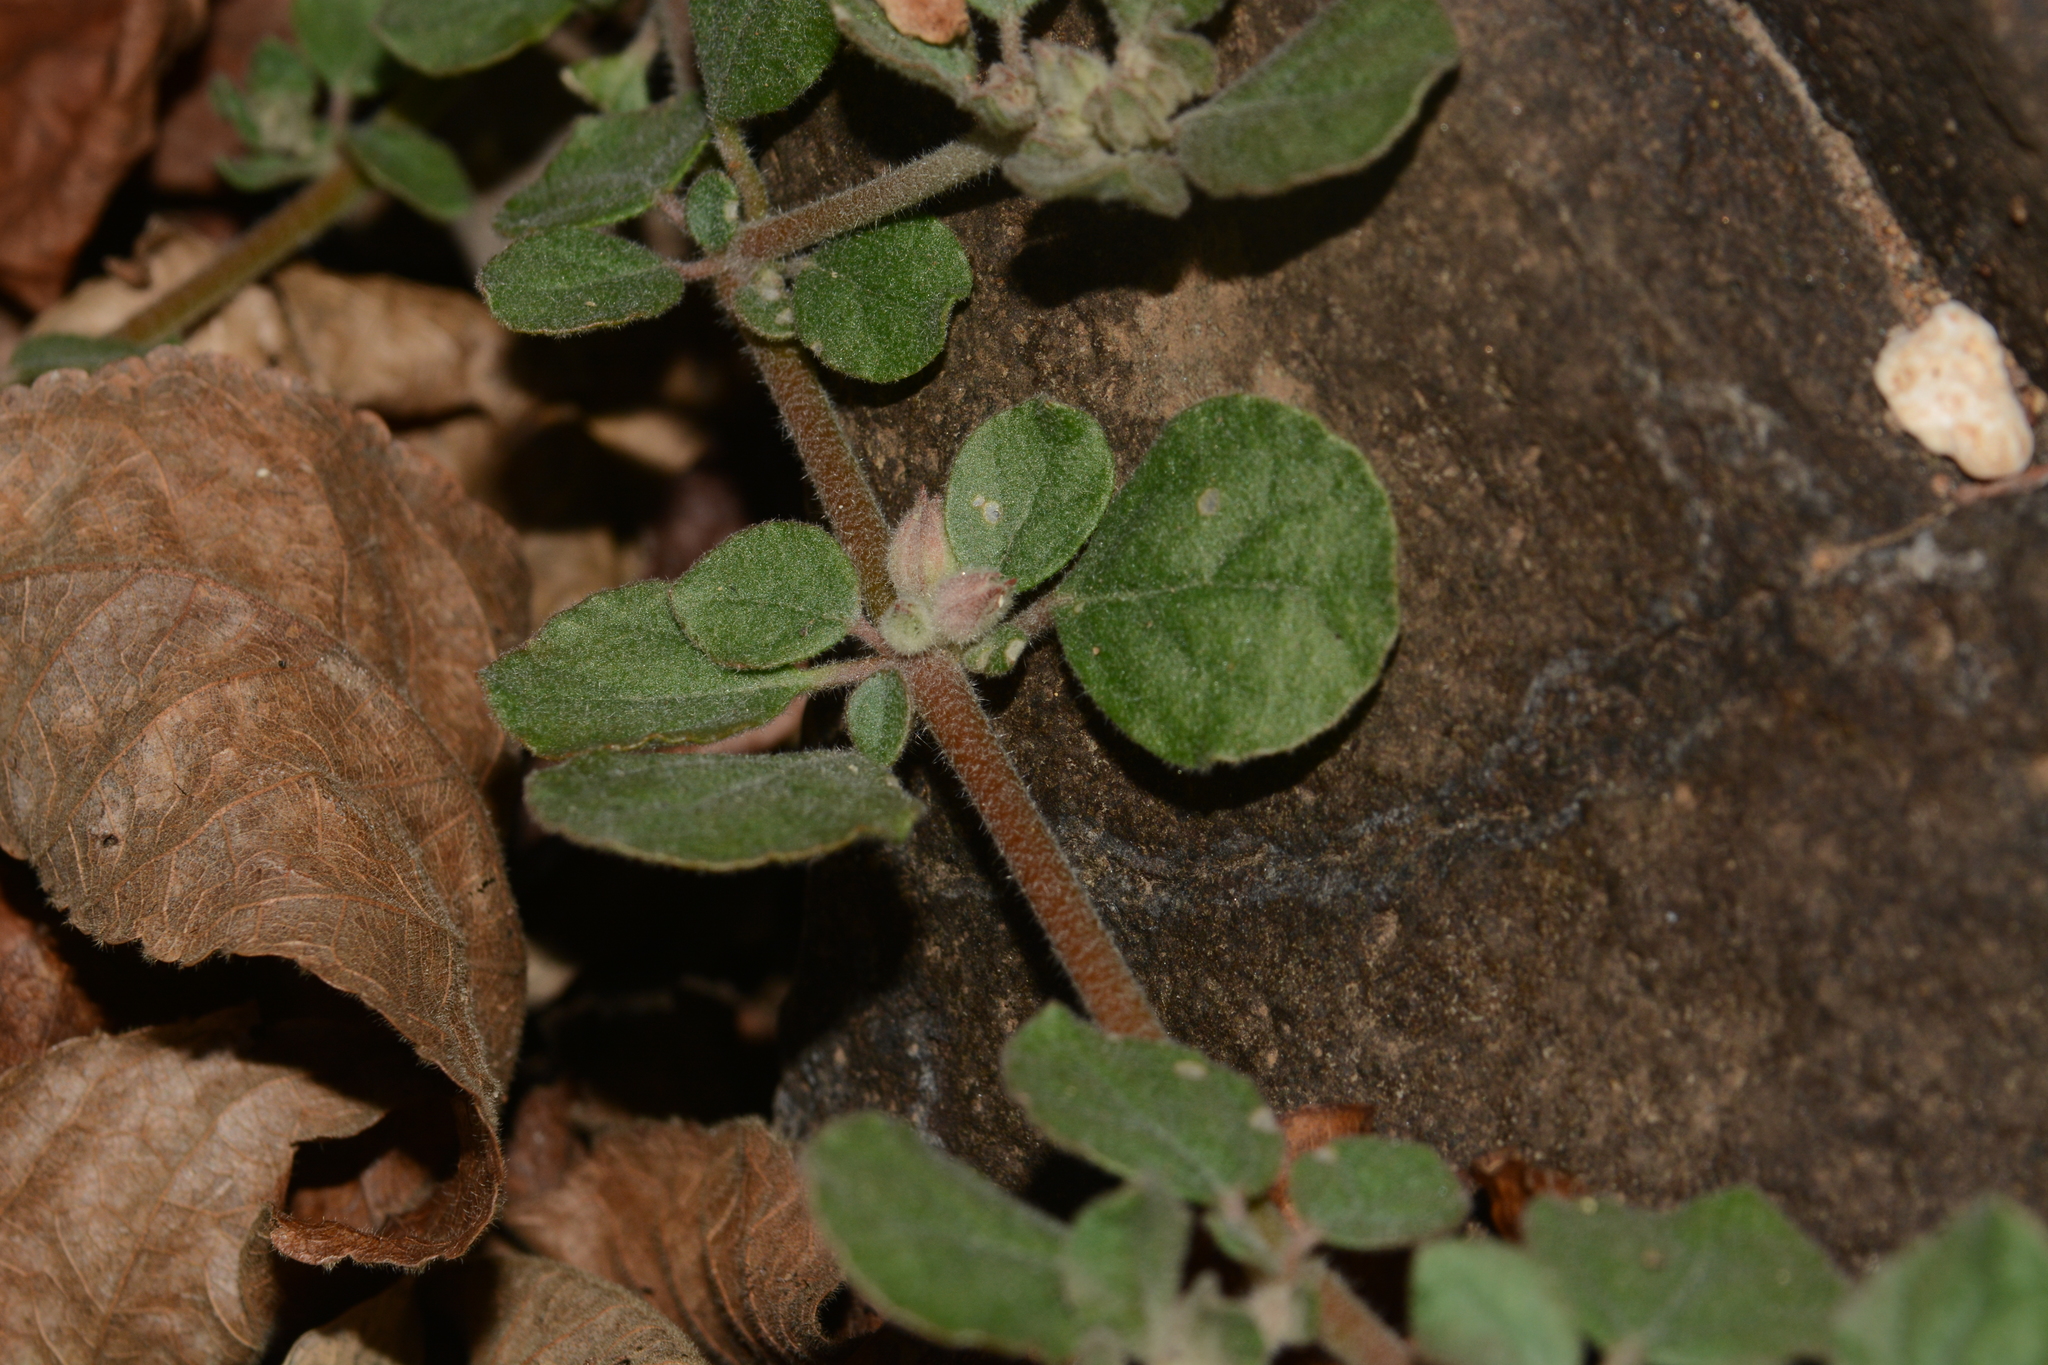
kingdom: Plantae
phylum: Tracheophyta
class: Magnoliopsida
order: Caryophyllales
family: Molluginaceae
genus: Glinus
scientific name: Glinus lotoides
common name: Lotus sweetjuice
